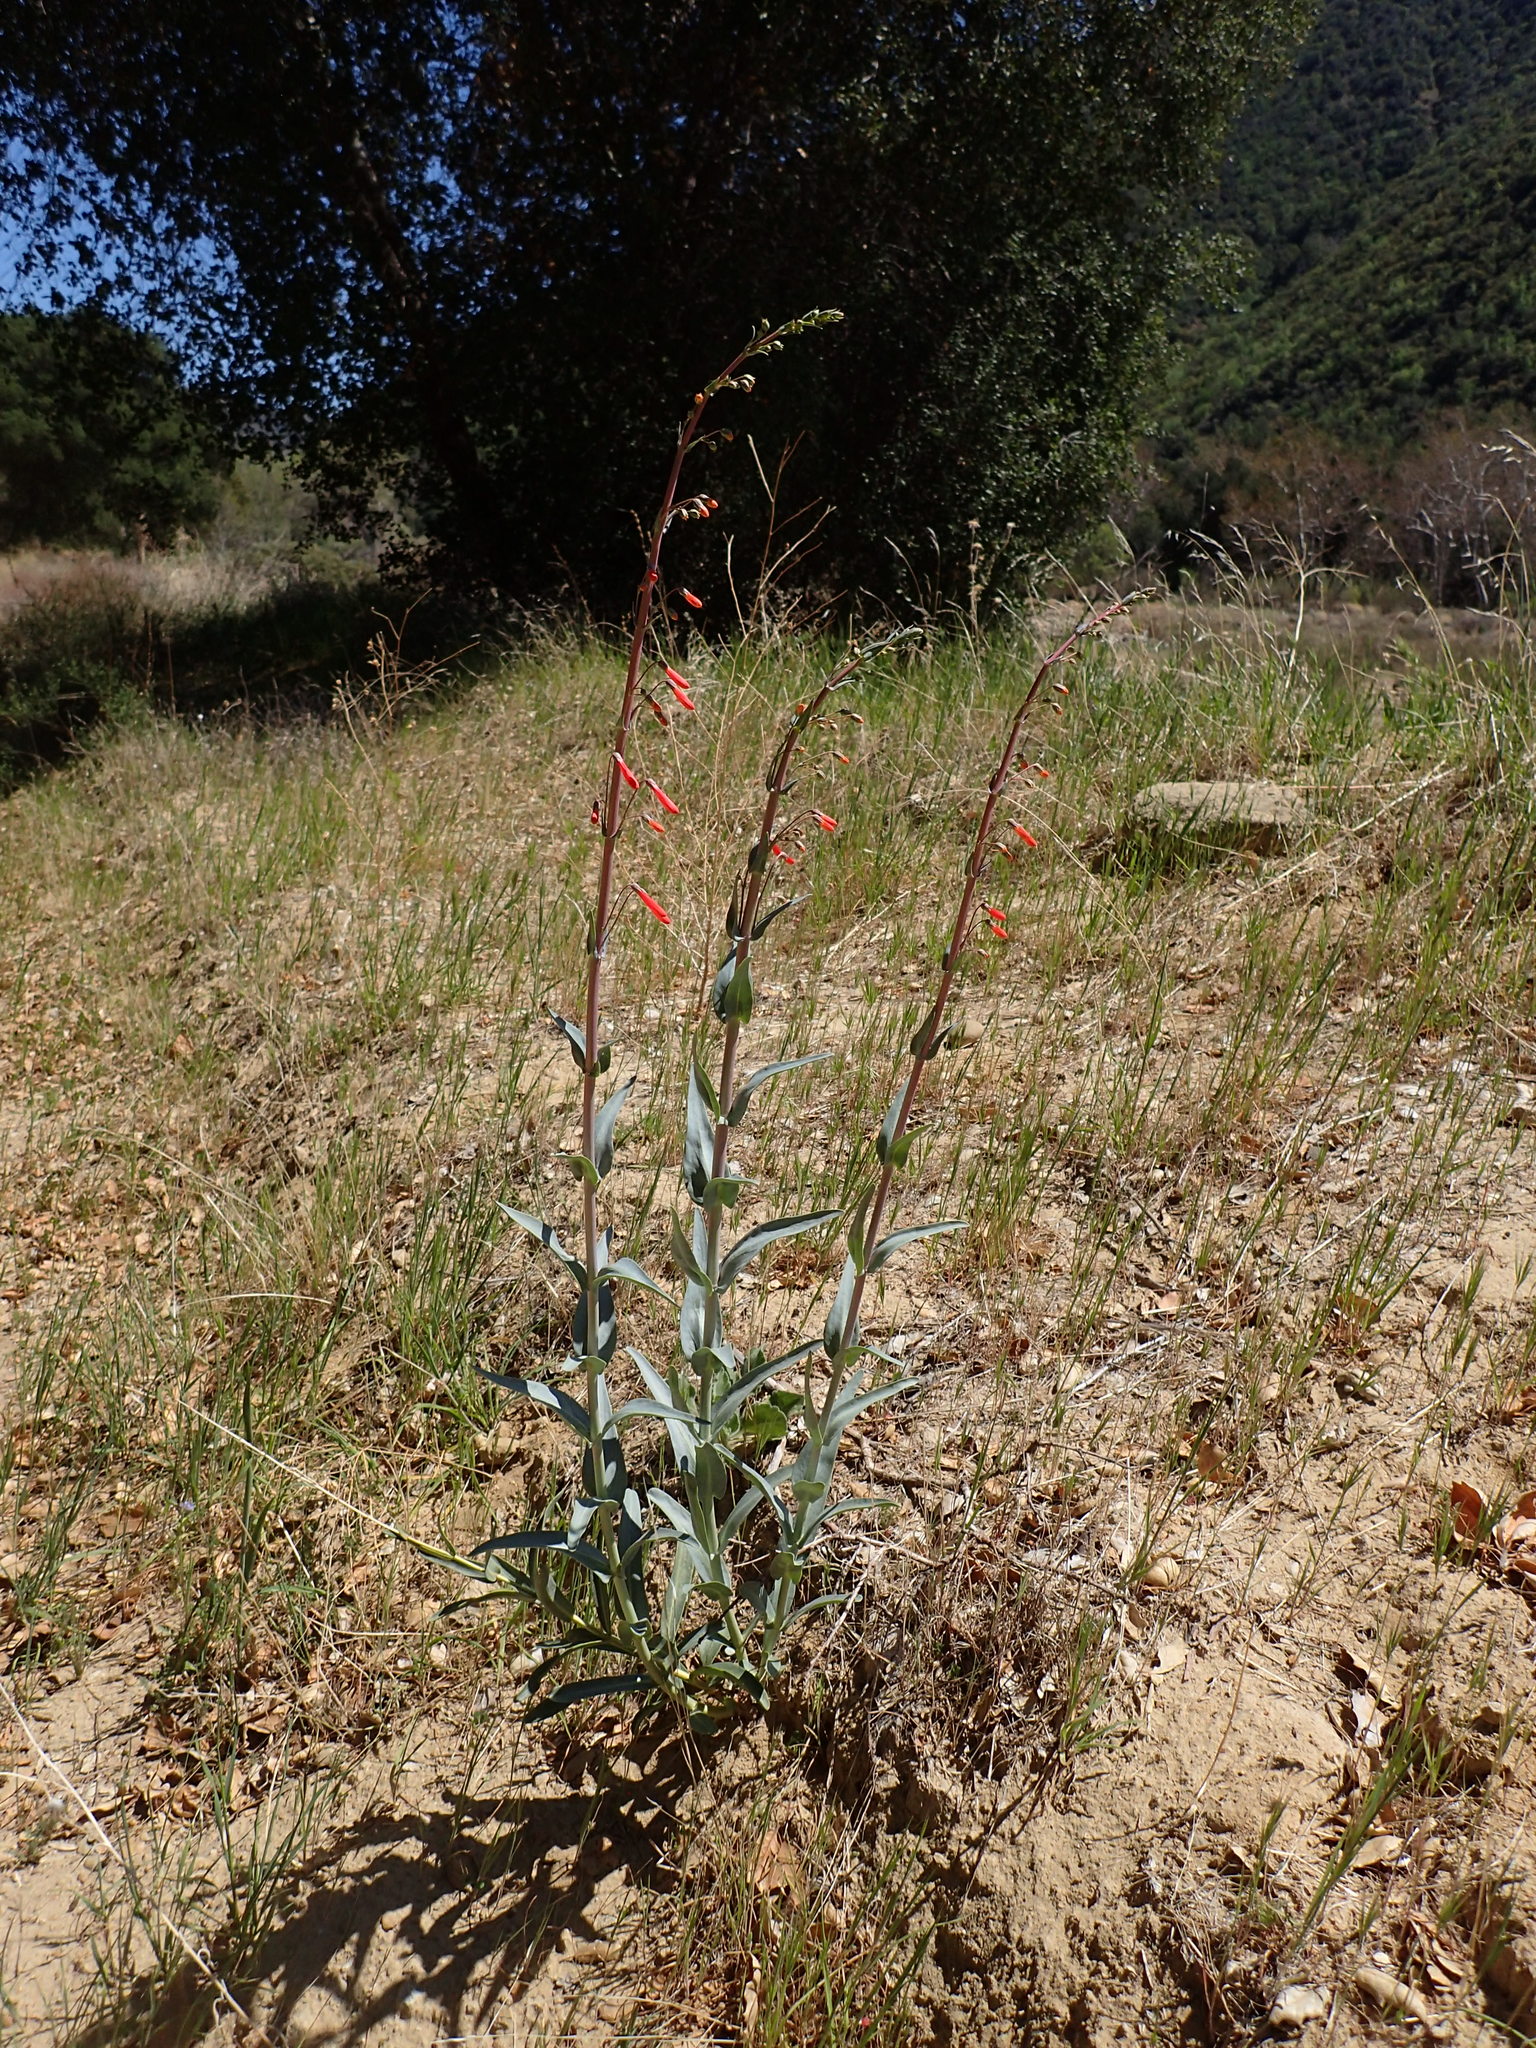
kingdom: Plantae
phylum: Tracheophyta
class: Magnoliopsida
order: Lamiales
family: Plantaginaceae
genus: Penstemon
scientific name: Penstemon centranthifolius
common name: Scarlet bugler
